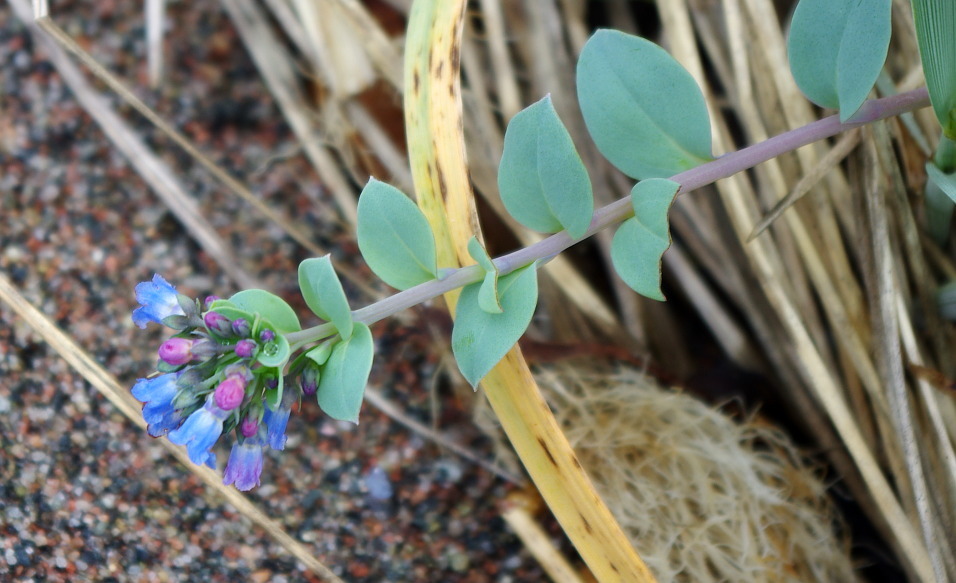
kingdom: Plantae
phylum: Tracheophyta
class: Magnoliopsida
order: Boraginales
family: Boraginaceae
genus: Mertensia
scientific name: Mertensia maritima
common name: Oysterplant
